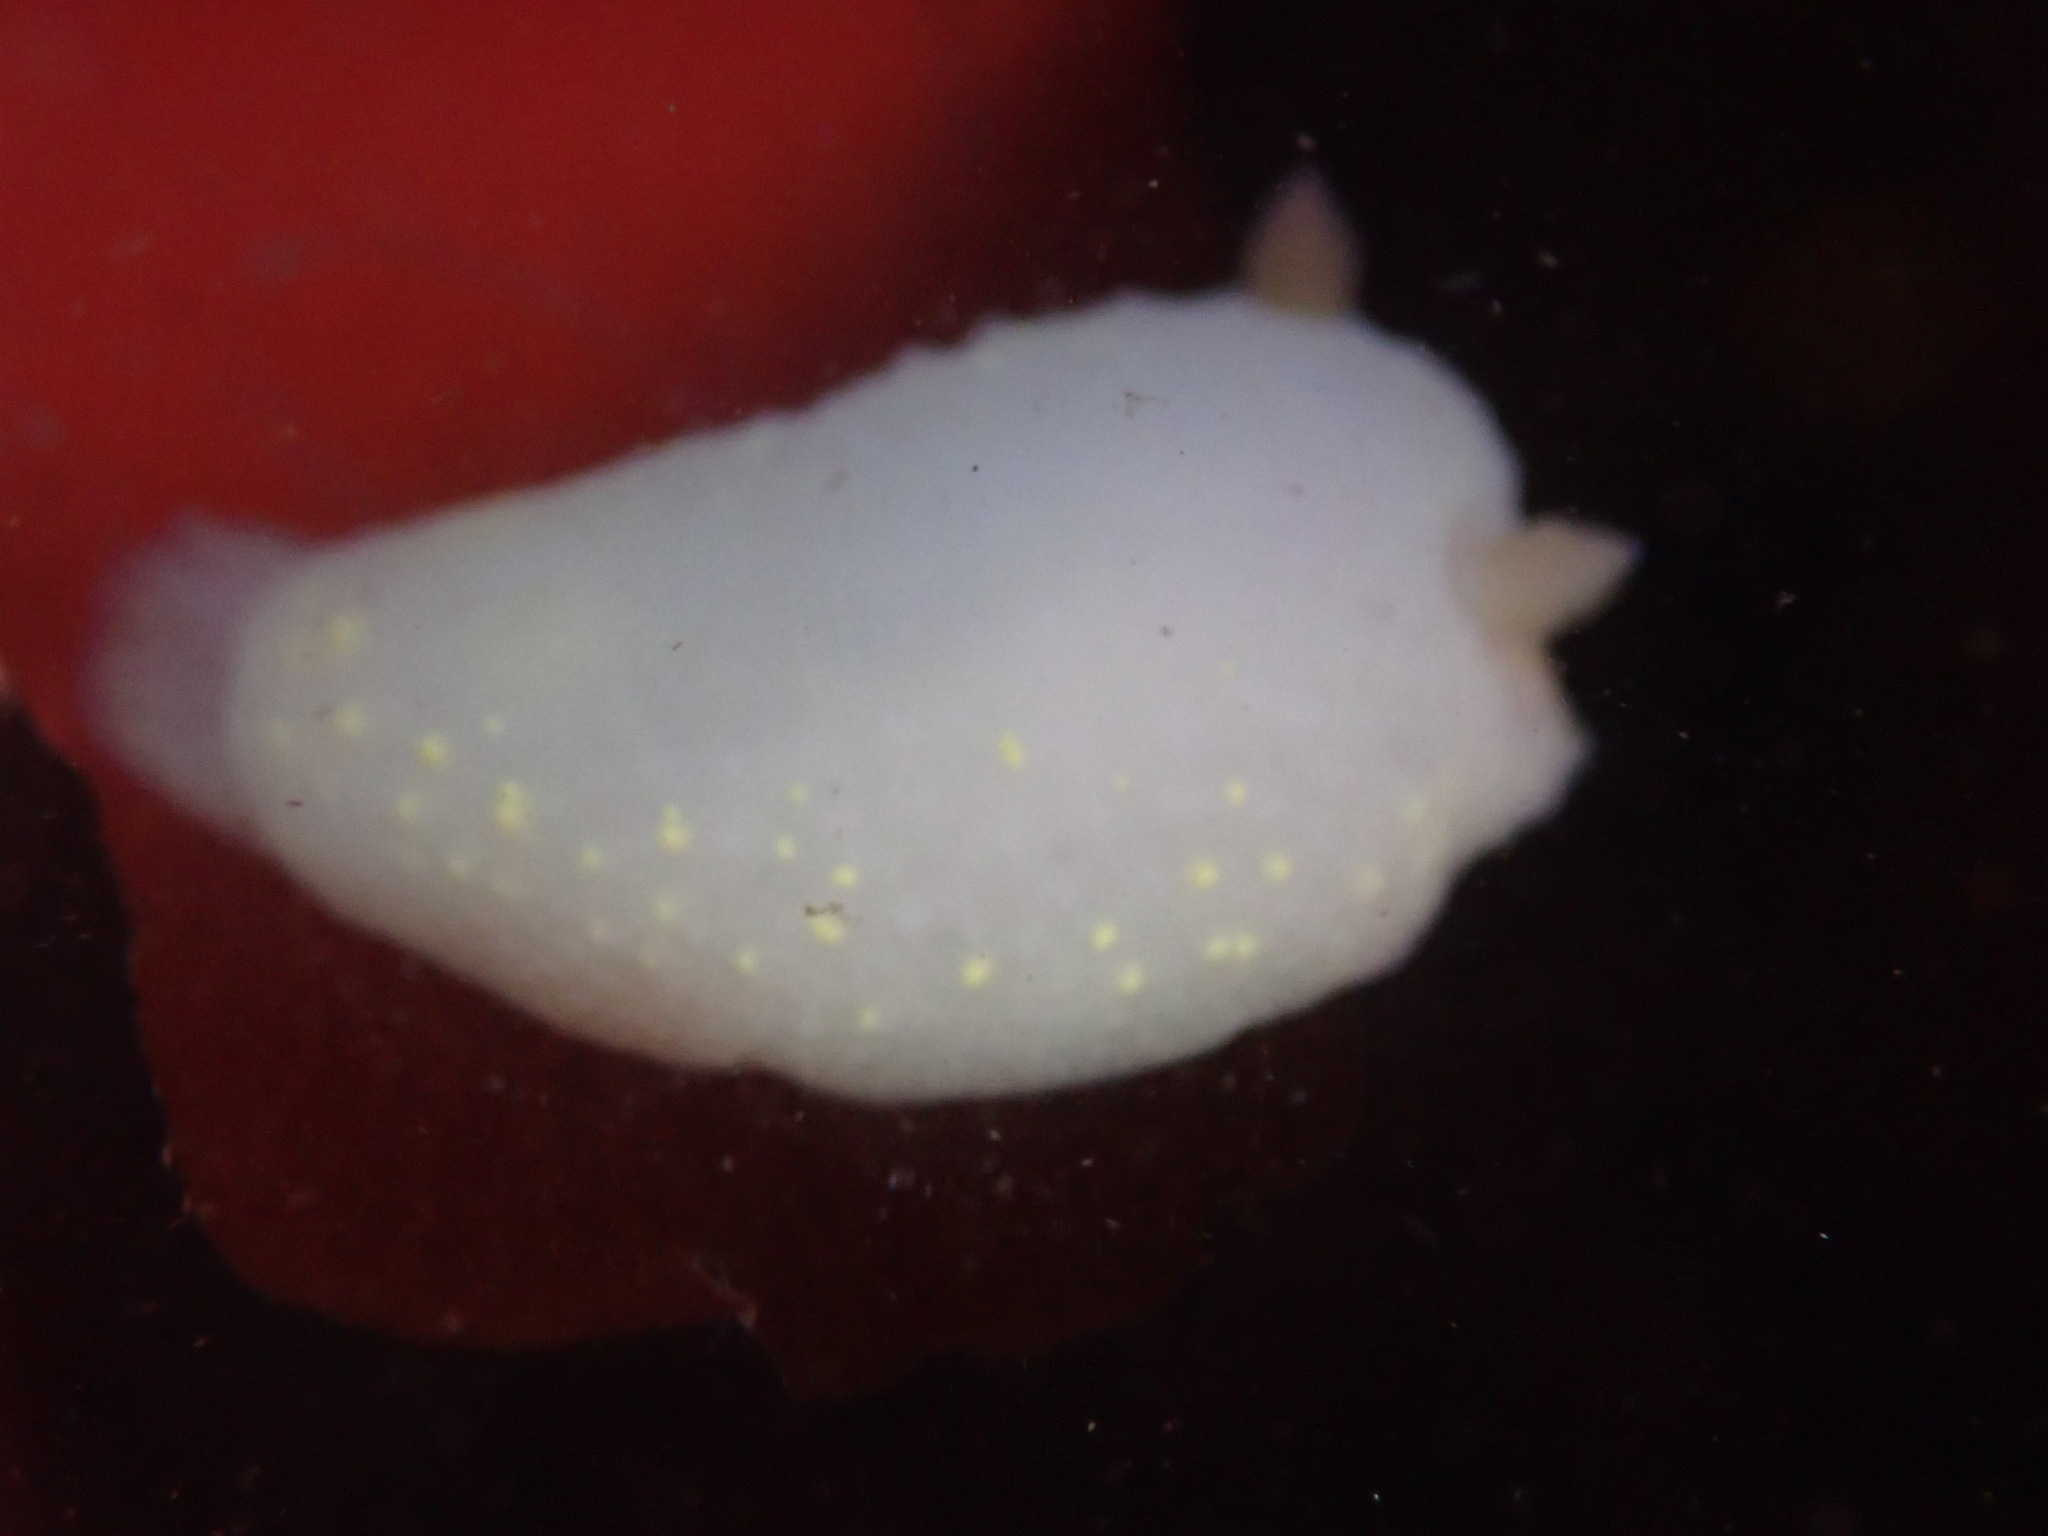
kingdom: Animalia
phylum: Mollusca
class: Gastropoda
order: Nudibranchia
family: Cadlinidae
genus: Cadlina
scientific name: Cadlina modesta
